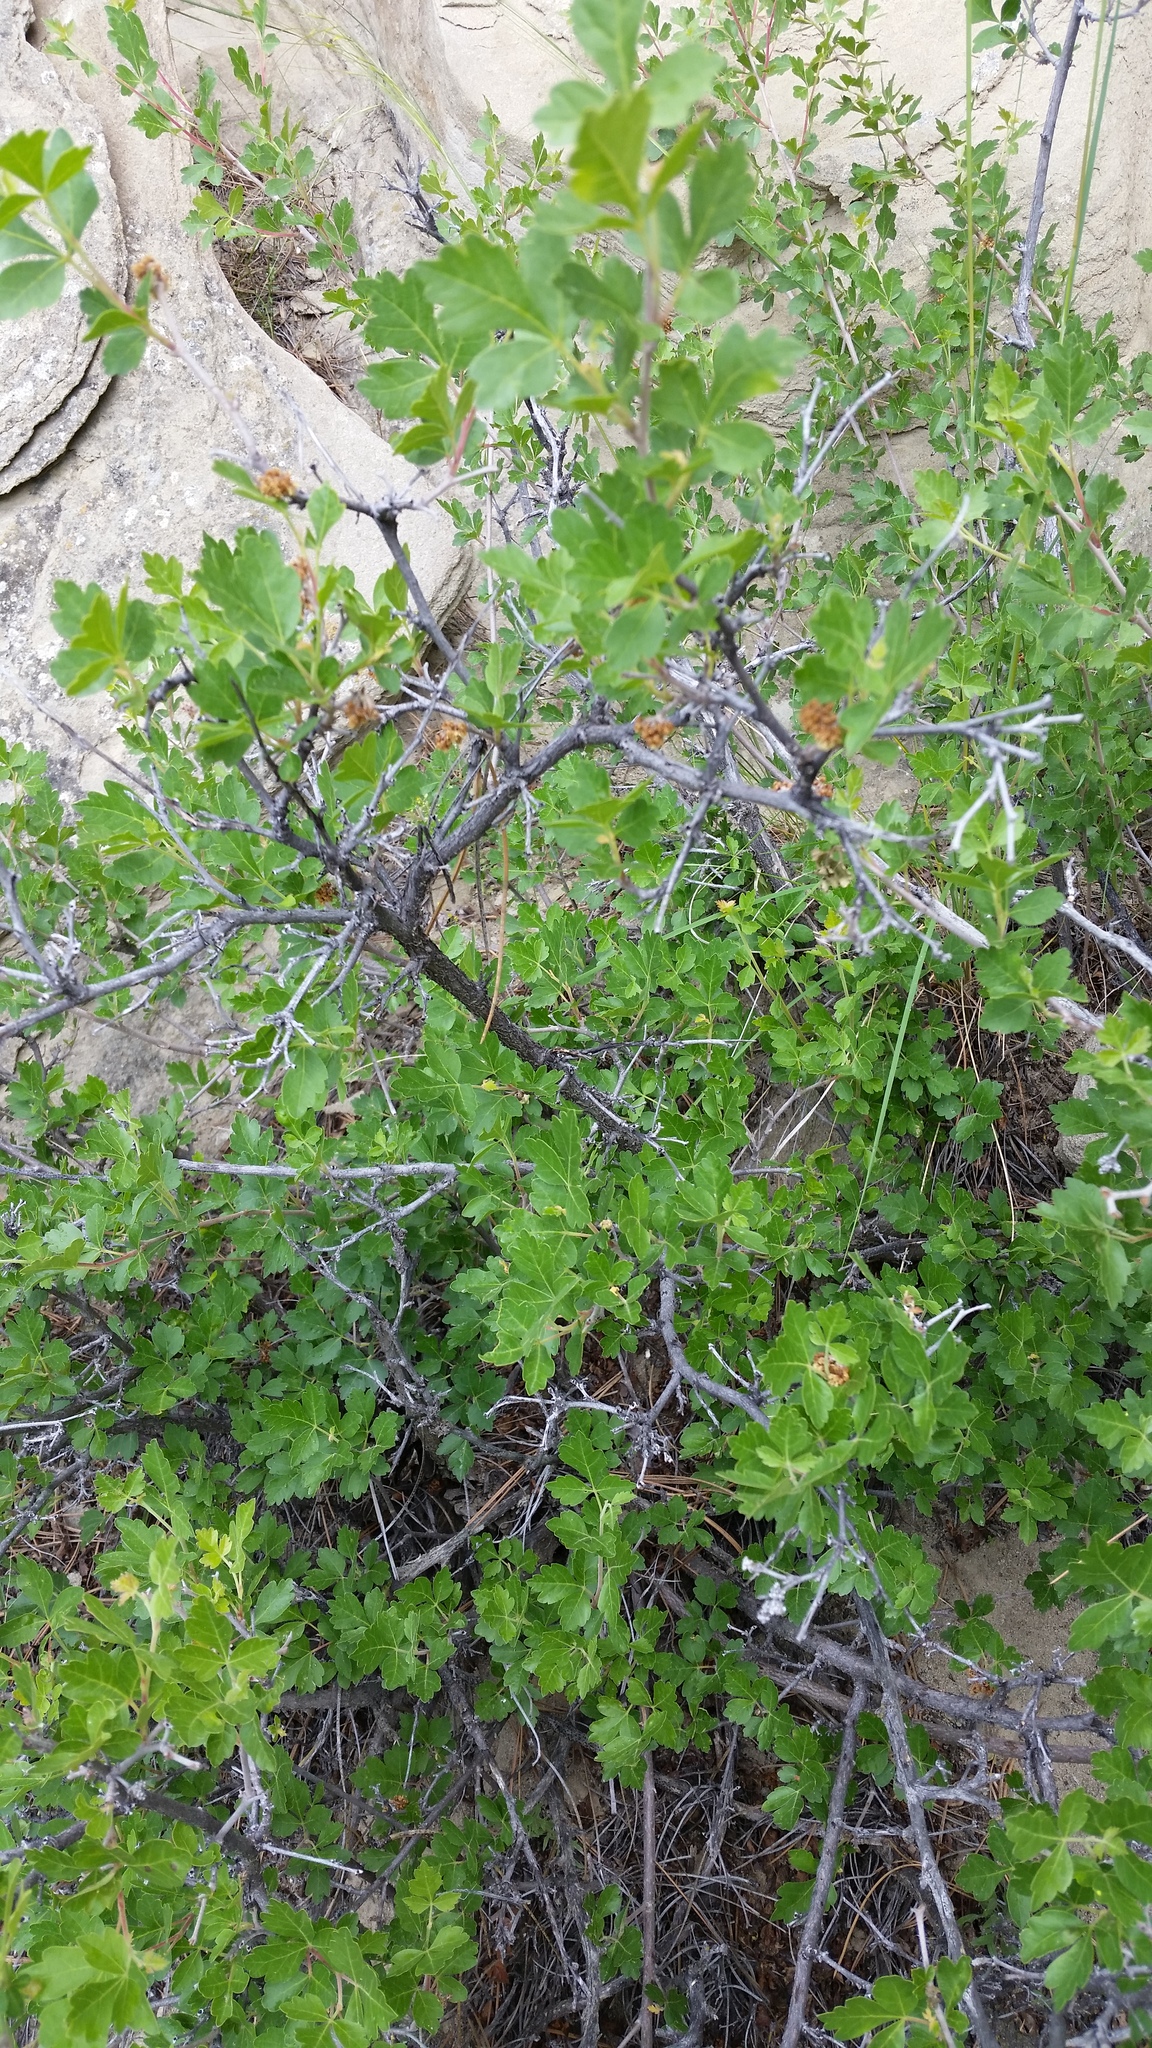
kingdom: Plantae
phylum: Tracheophyta
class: Magnoliopsida
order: Sapindales
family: Anacardiaceae
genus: Rhus
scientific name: Rhus aromatica
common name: Aromatic sumac
